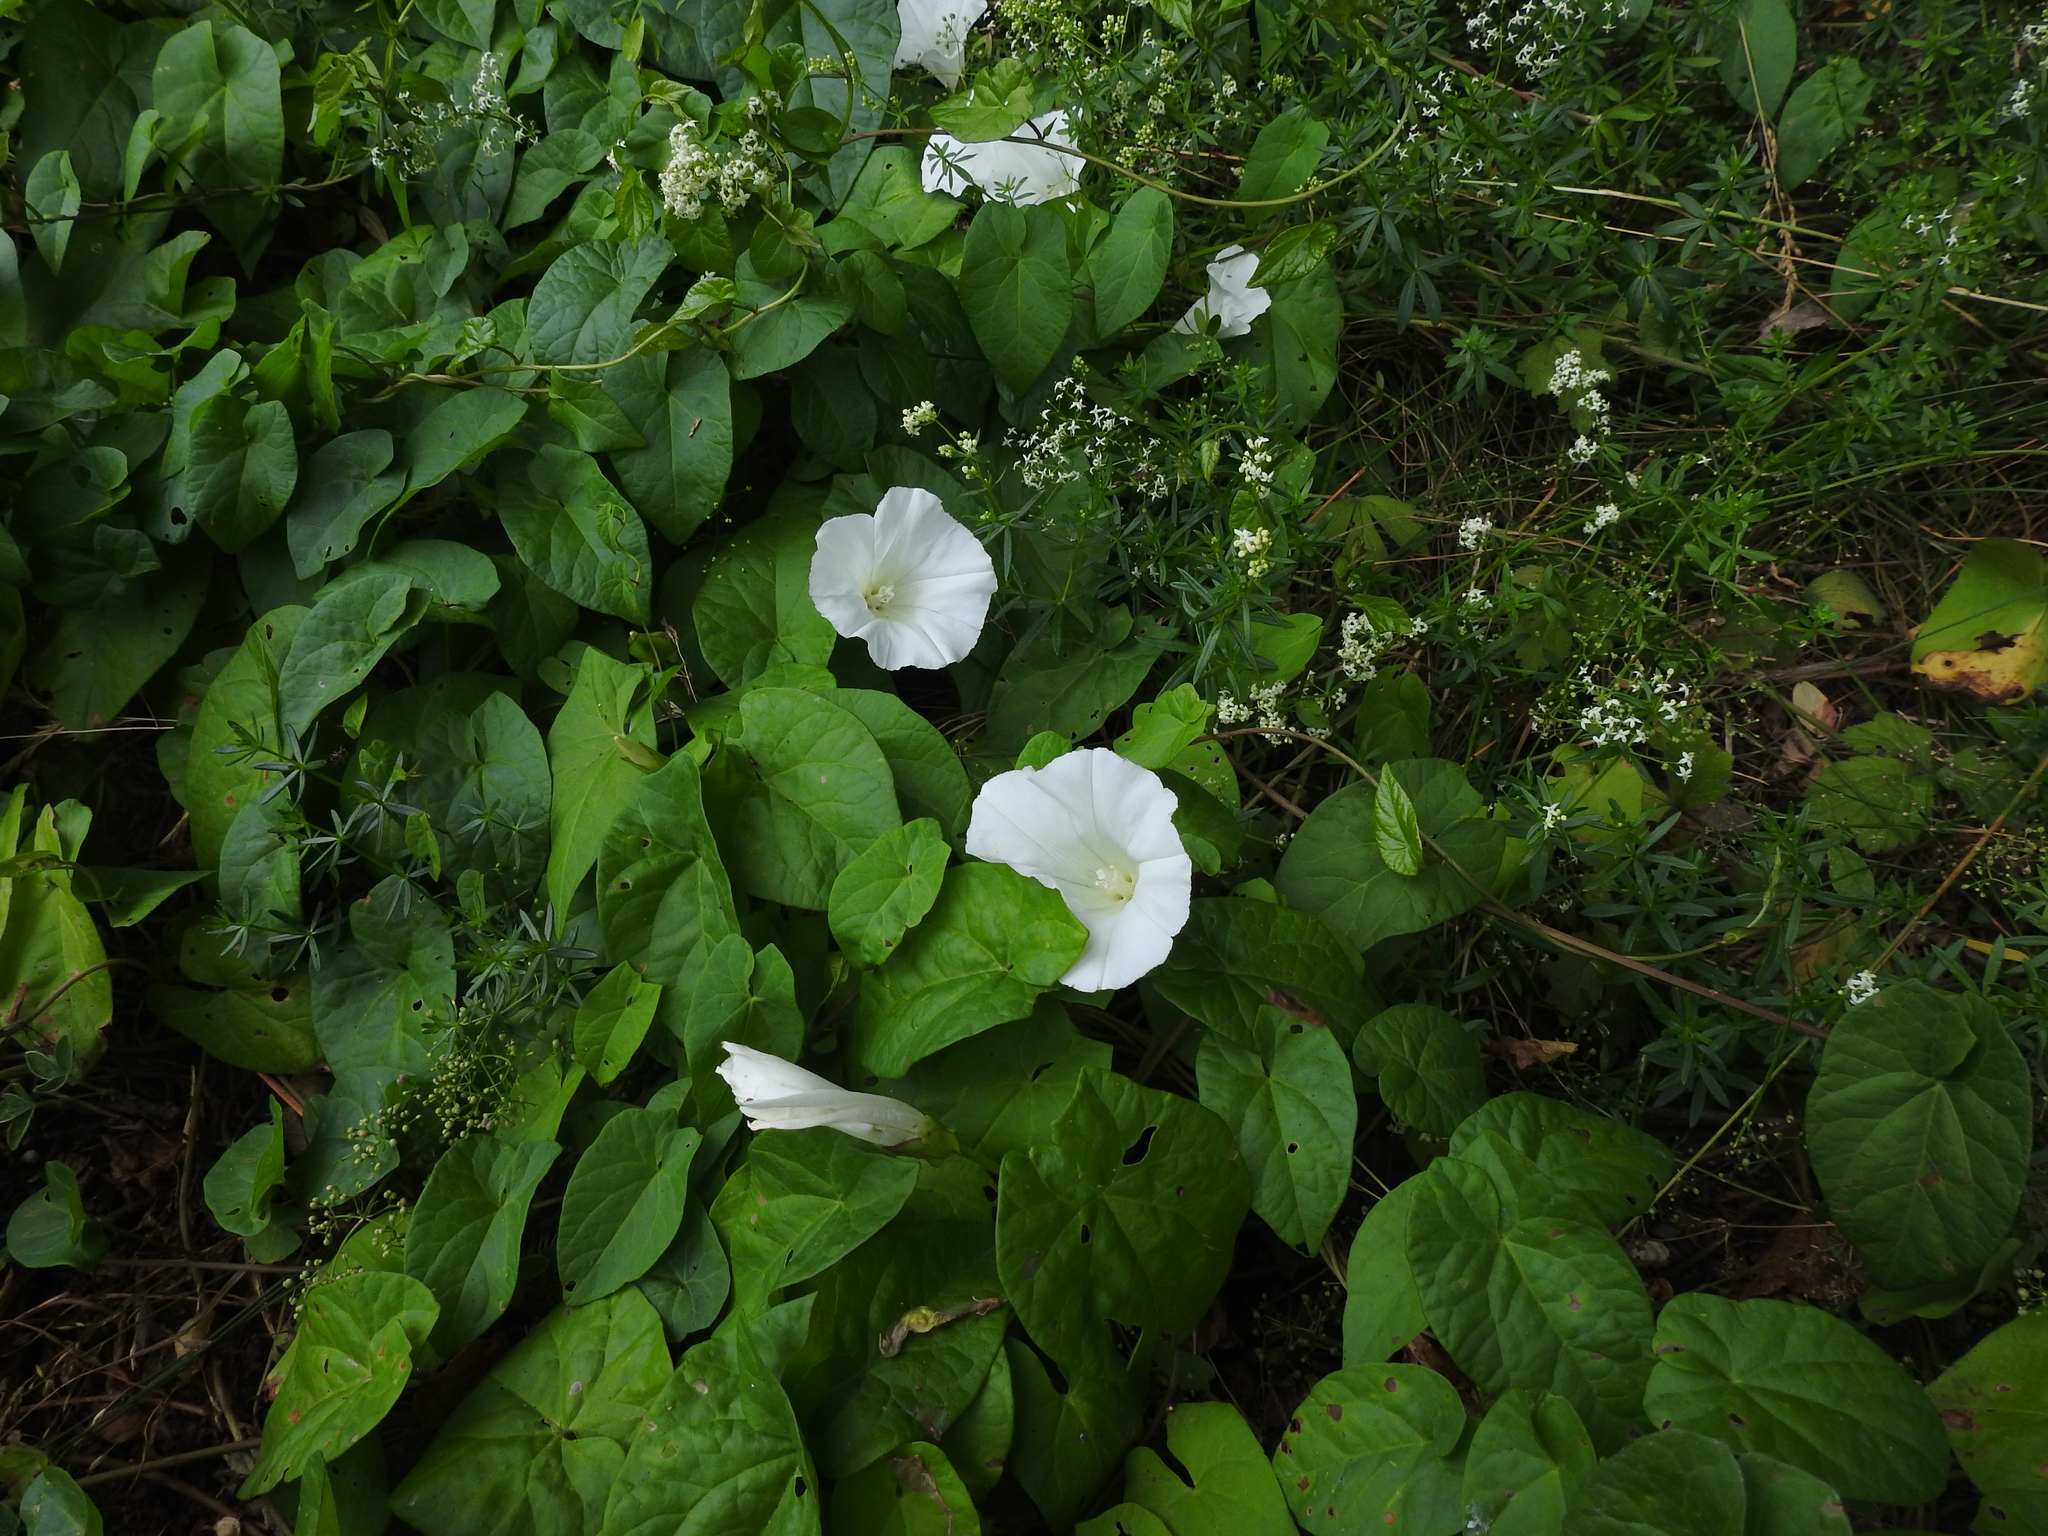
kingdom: Plantae
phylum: Tracheophyta
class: Magnoliopsida
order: Solanales
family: Convolvulaceae
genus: Calystegia
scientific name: Calystegia sepium
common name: Hedge bindweed
